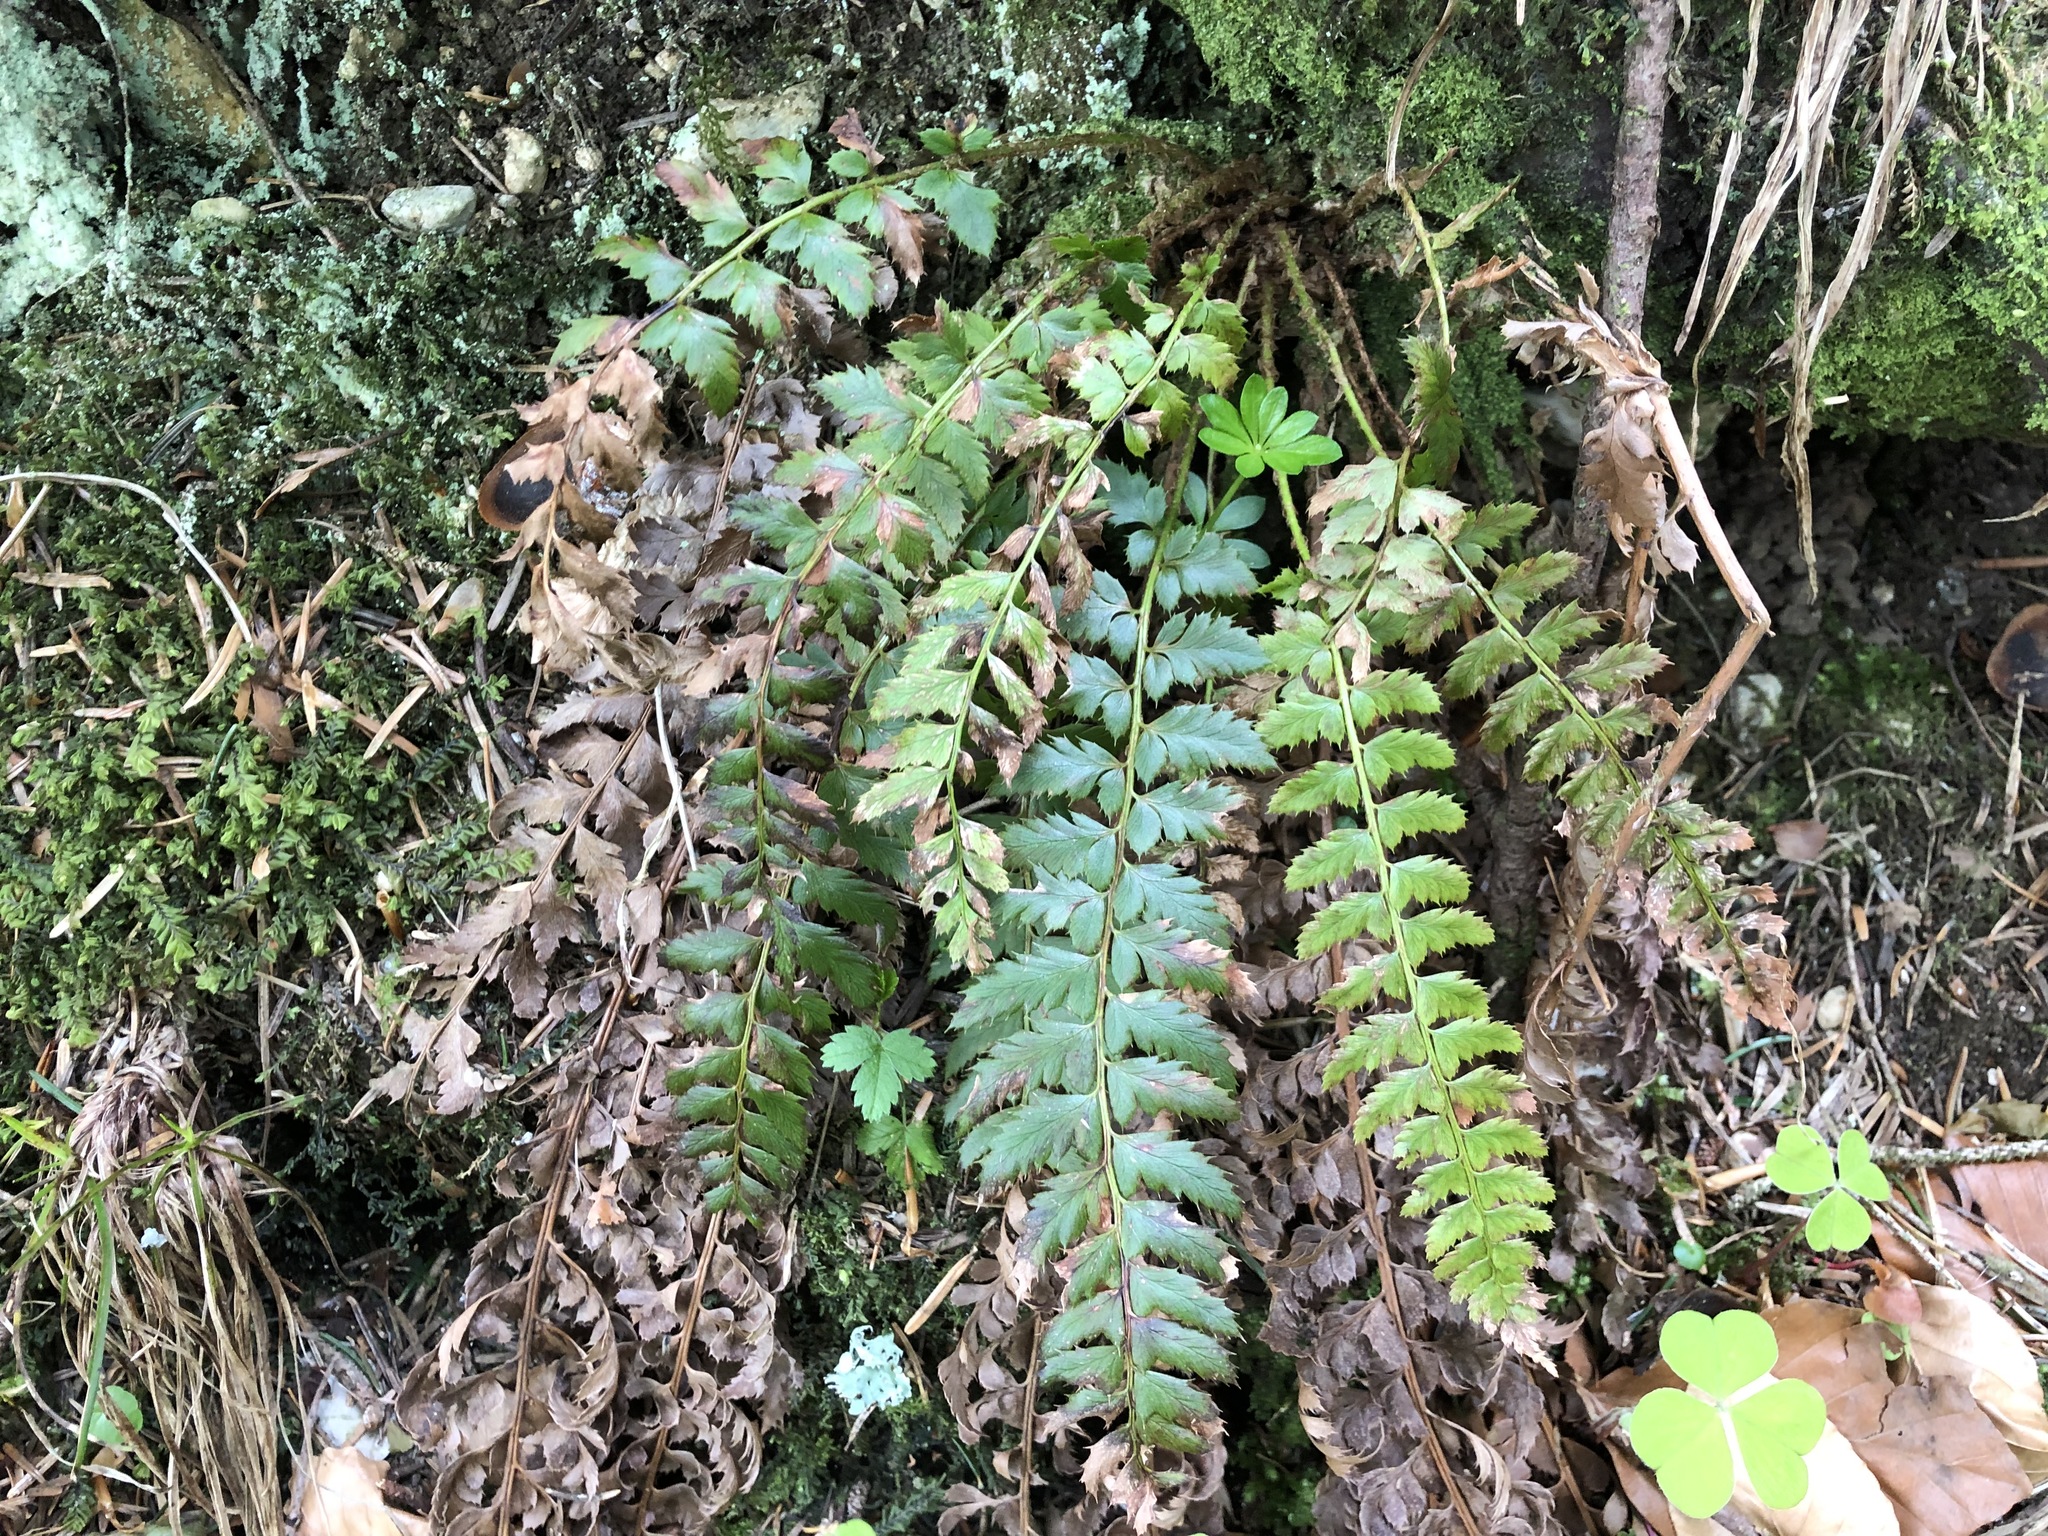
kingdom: Plantae
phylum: Tracheophyta
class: Polypodiopsida
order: Polypodiales
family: Dryopteridaceae
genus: Polystichum
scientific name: Polystichum aculeatum
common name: Hard shield-fern
